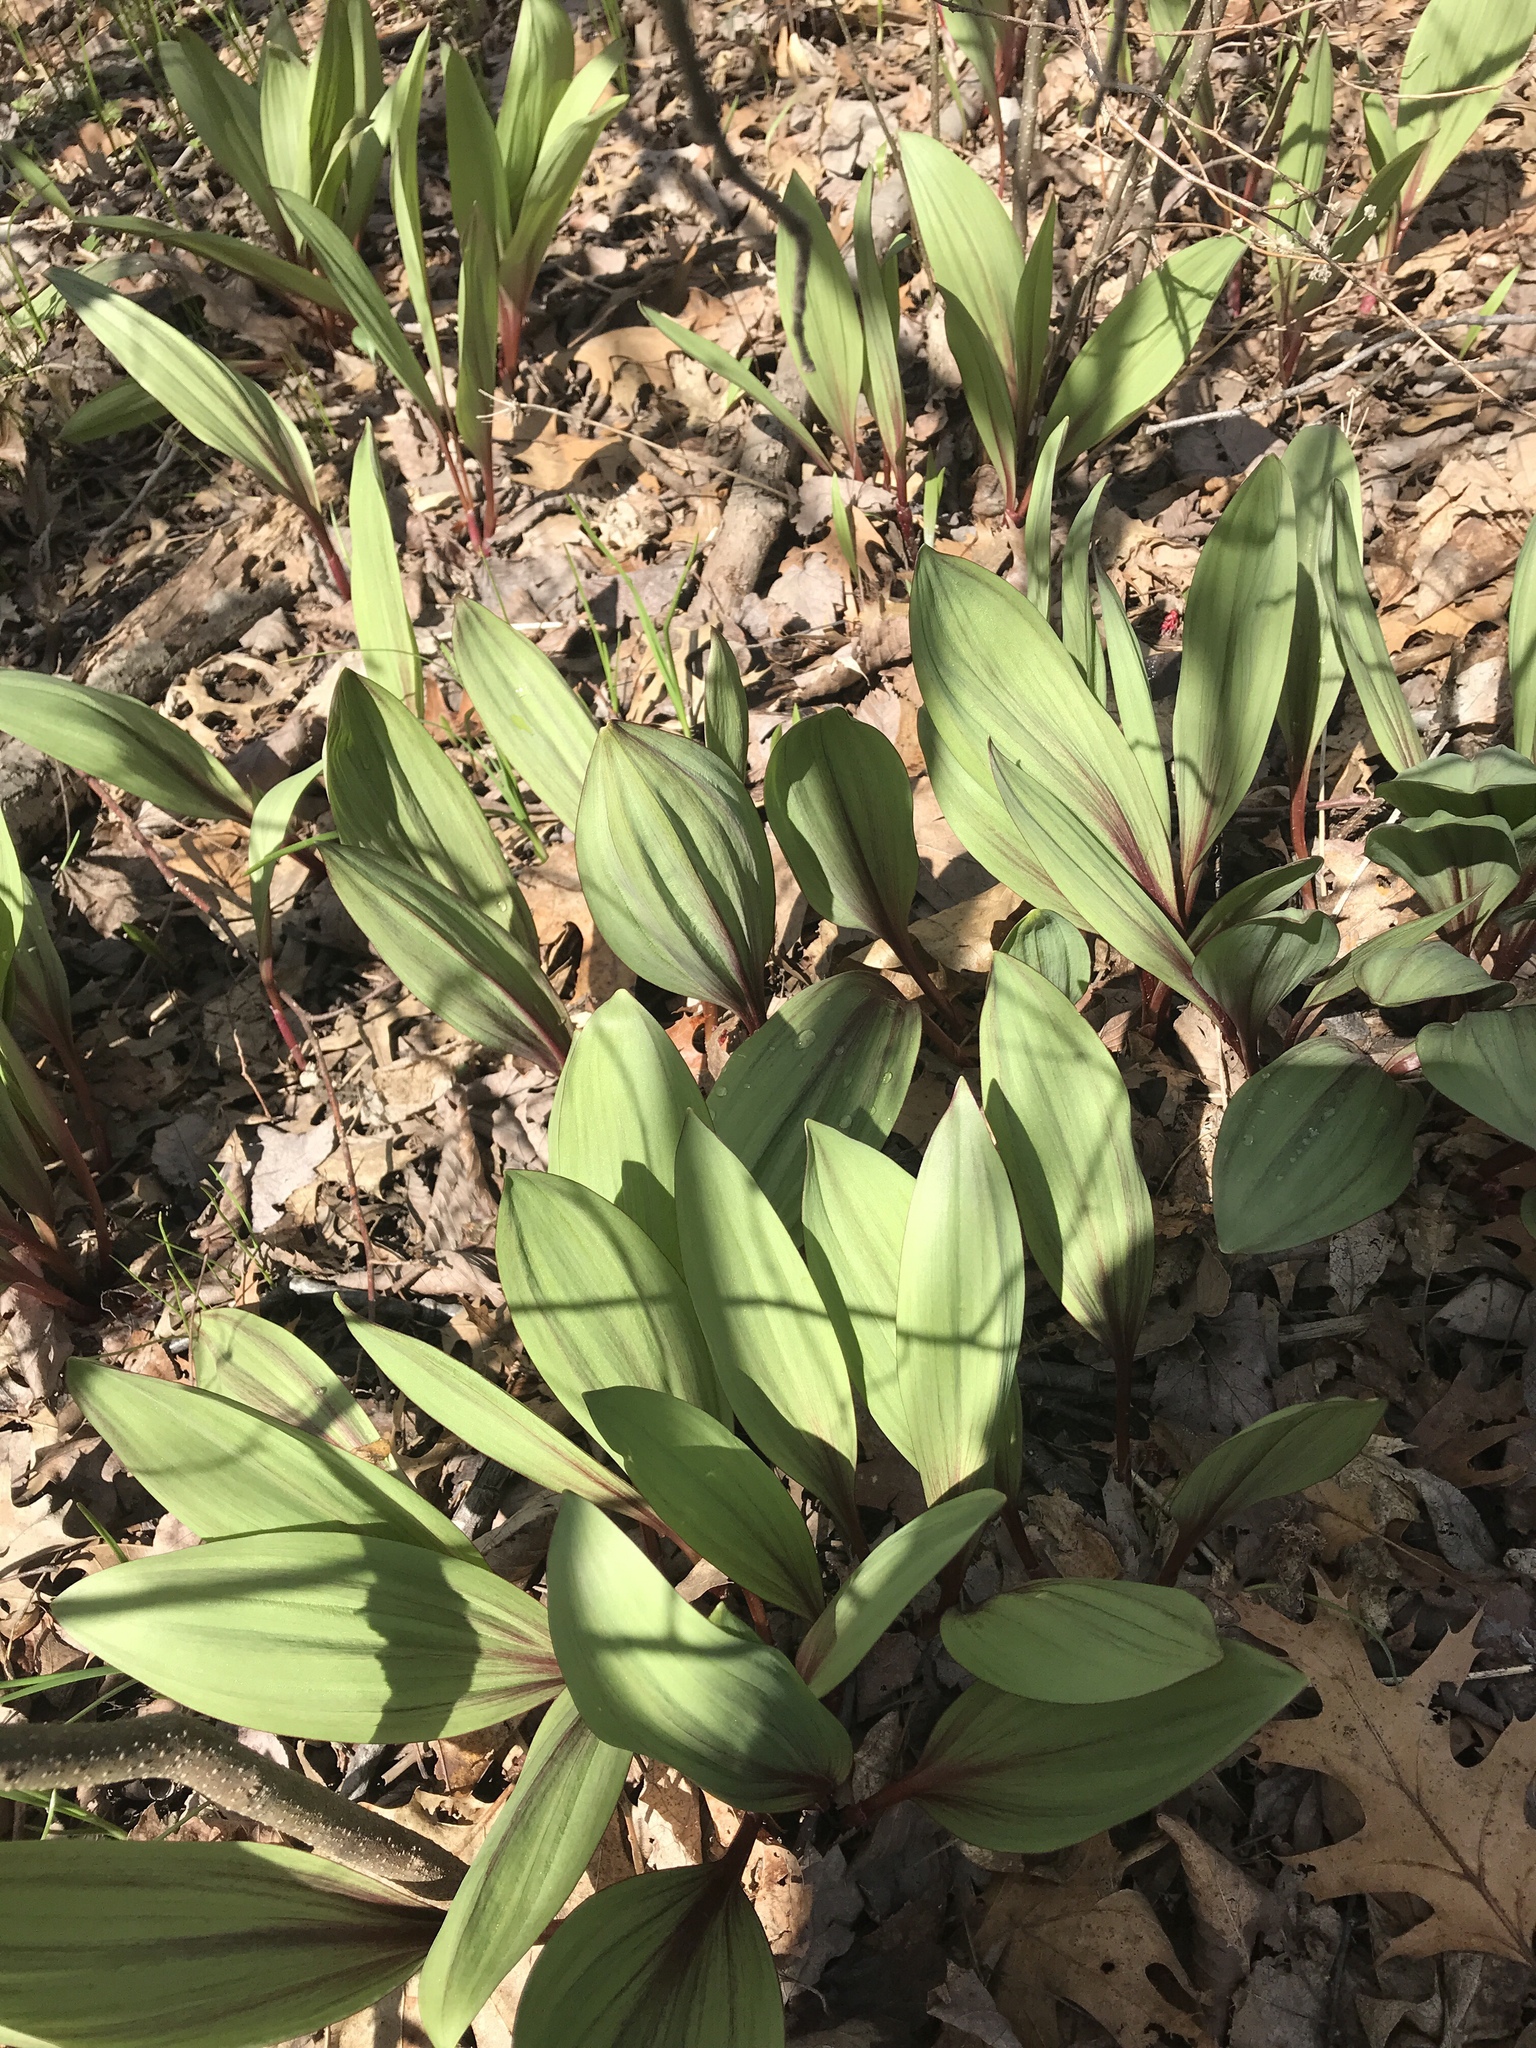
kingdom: Plantae
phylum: Tracheophyta
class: Liliopsida
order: Asparagales
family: Amaryllidaceae
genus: Allium
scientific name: Allium tricoccum
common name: Ramp
